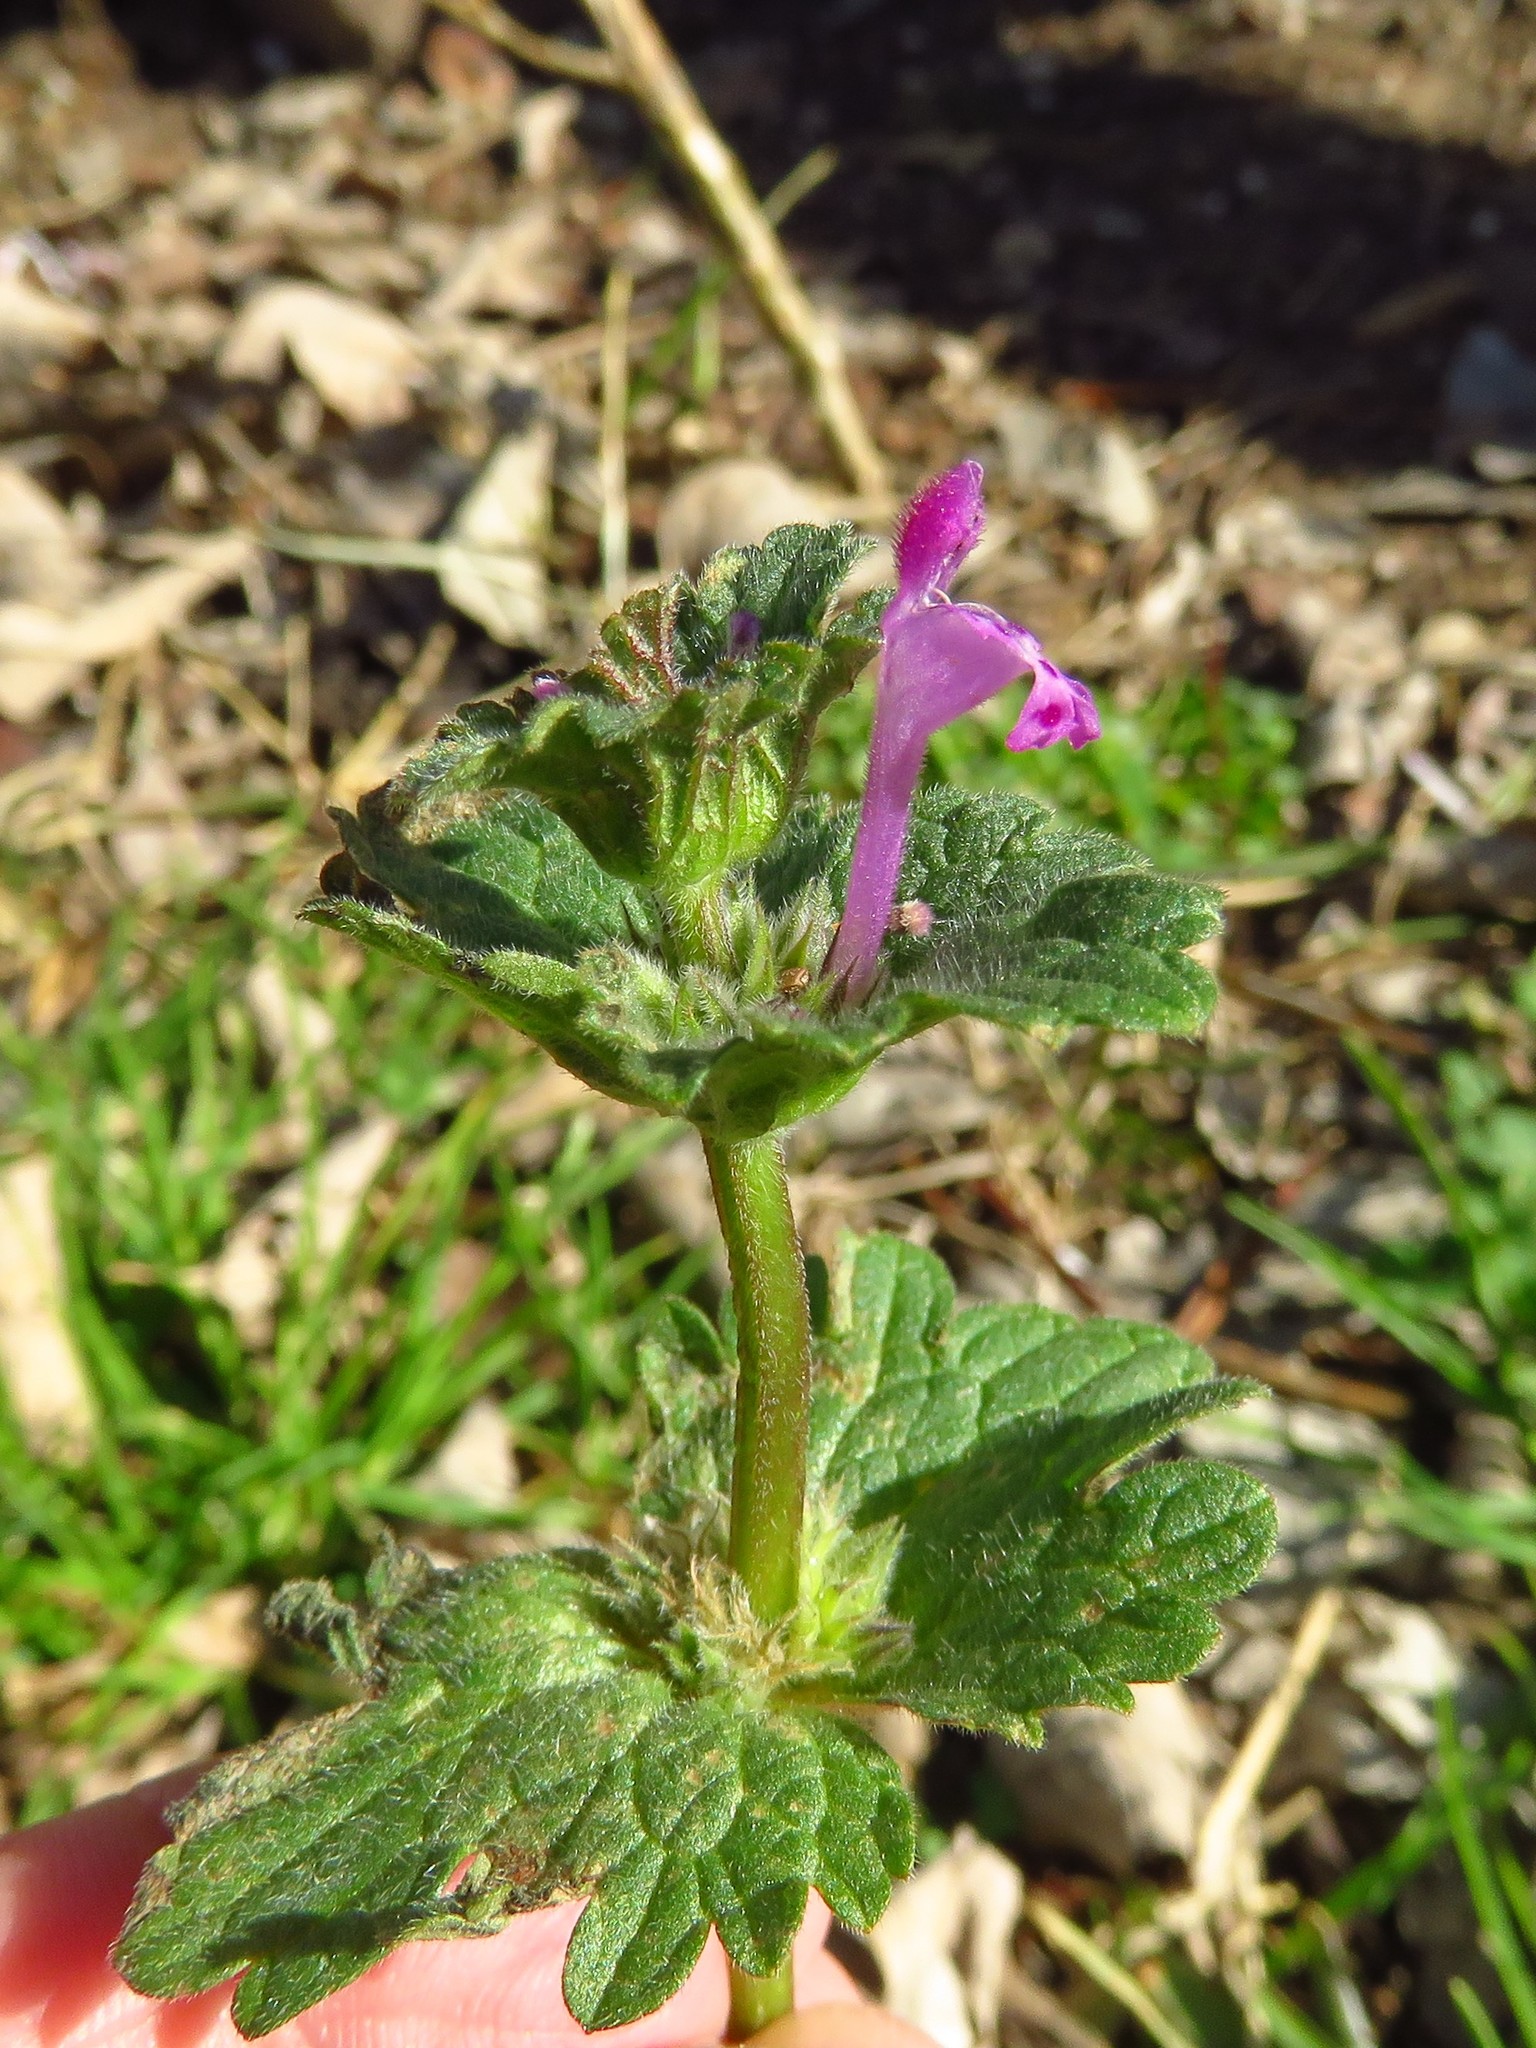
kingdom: Plantae
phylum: Tracheophyta
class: Magnoliopsida
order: Lamiales
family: Lamiaceae
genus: Lamium
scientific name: Lamium amplexicaule
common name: Henbit dead-nettle
